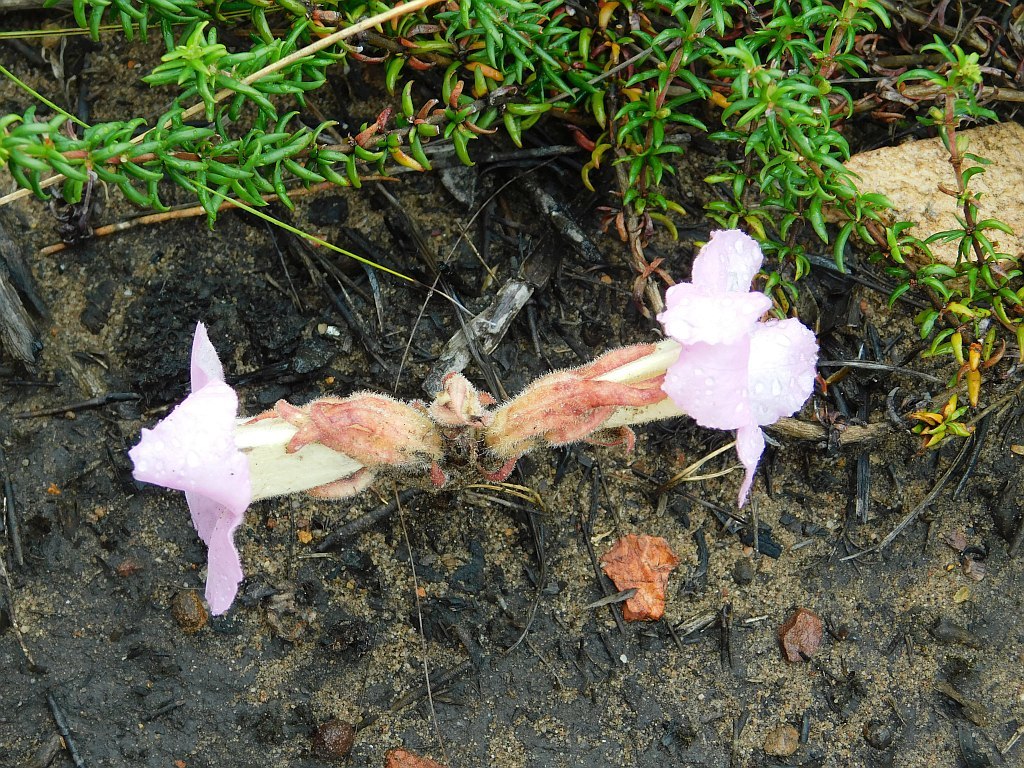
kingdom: Plantae
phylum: Tracheophyta
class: Magnoliopsida
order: Lamiales
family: Orobanchaceae
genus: Harveya
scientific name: Harveya purpurea
